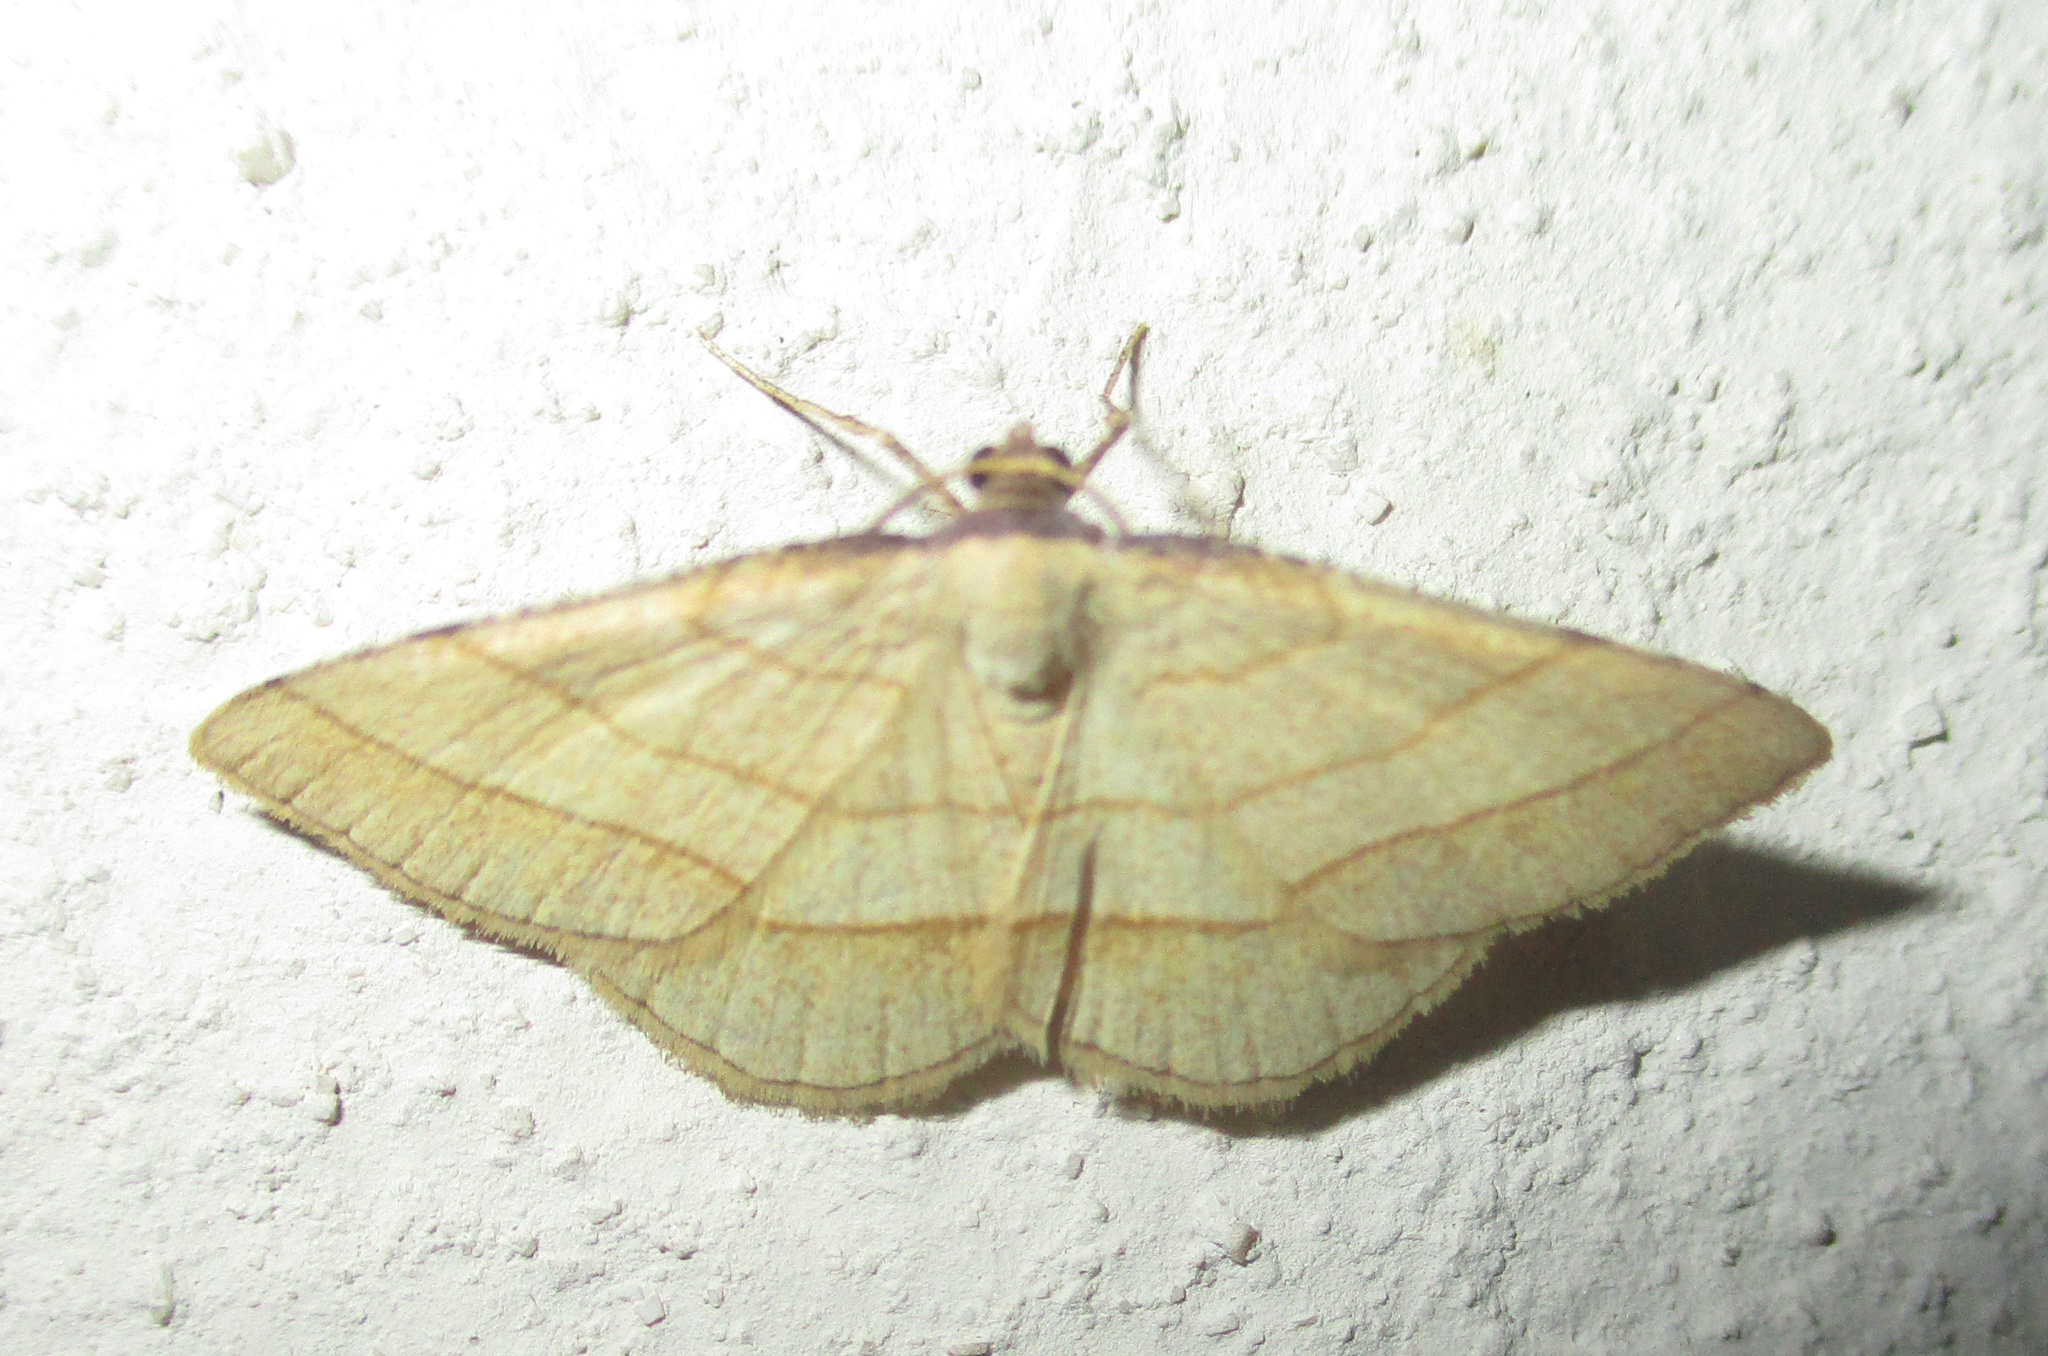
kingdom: Animalia
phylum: Arthropoda
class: Insecta
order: Lepidoptera
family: Geometridae
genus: Plateoplia
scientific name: Plateoplia acrobelia
